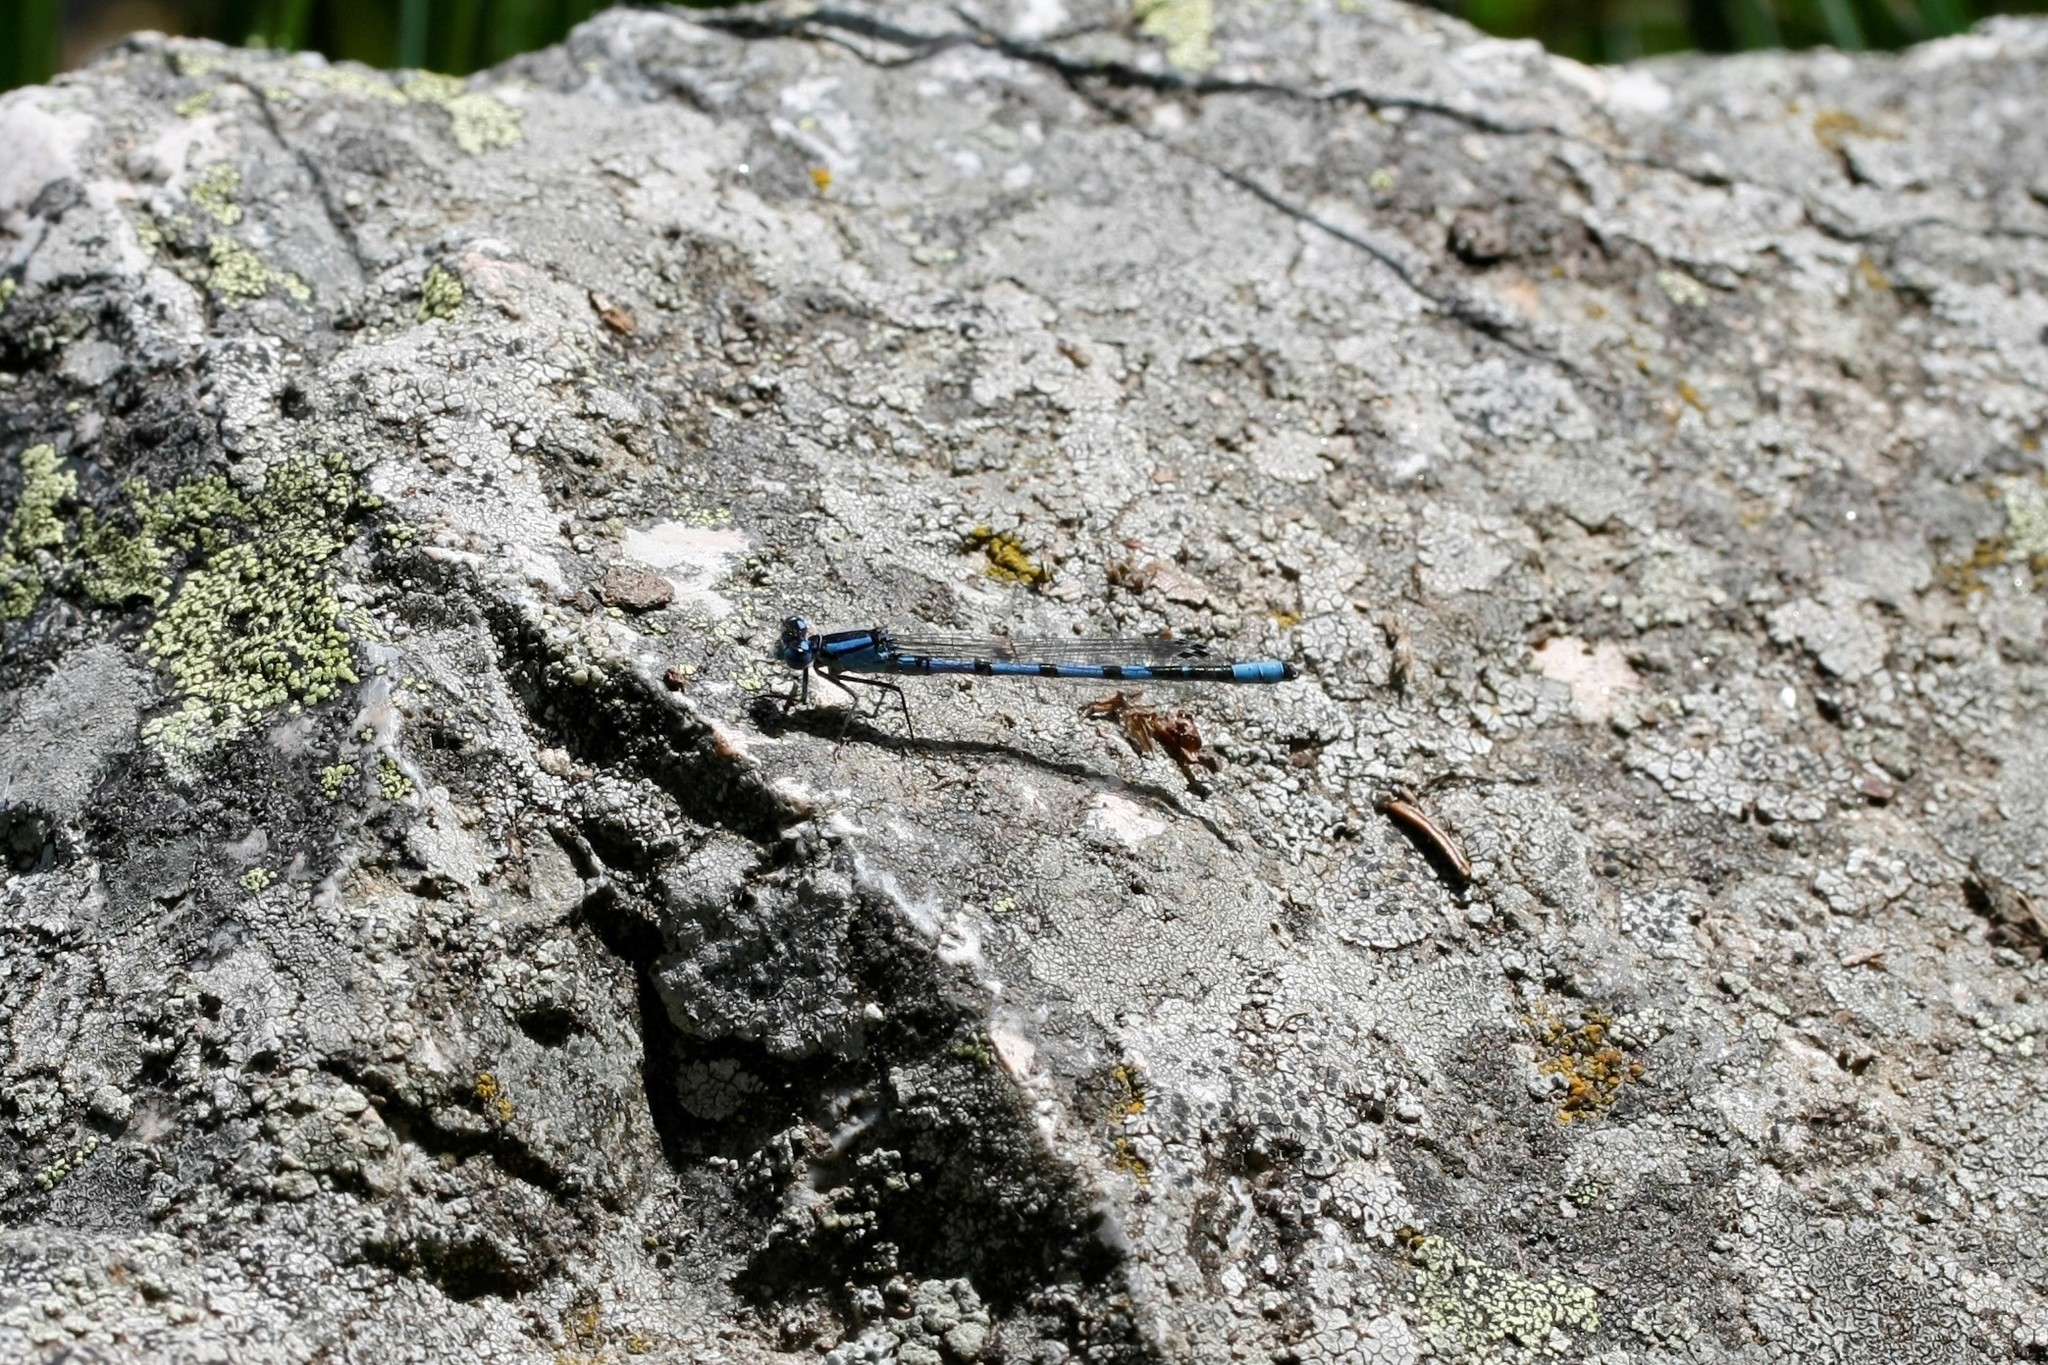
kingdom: Animalia
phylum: Arthropoda
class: Insecta
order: Odonata
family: Coenagrionidae
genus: Enallagma
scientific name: Enallagma cyathigerum
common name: Common blue damselfly
